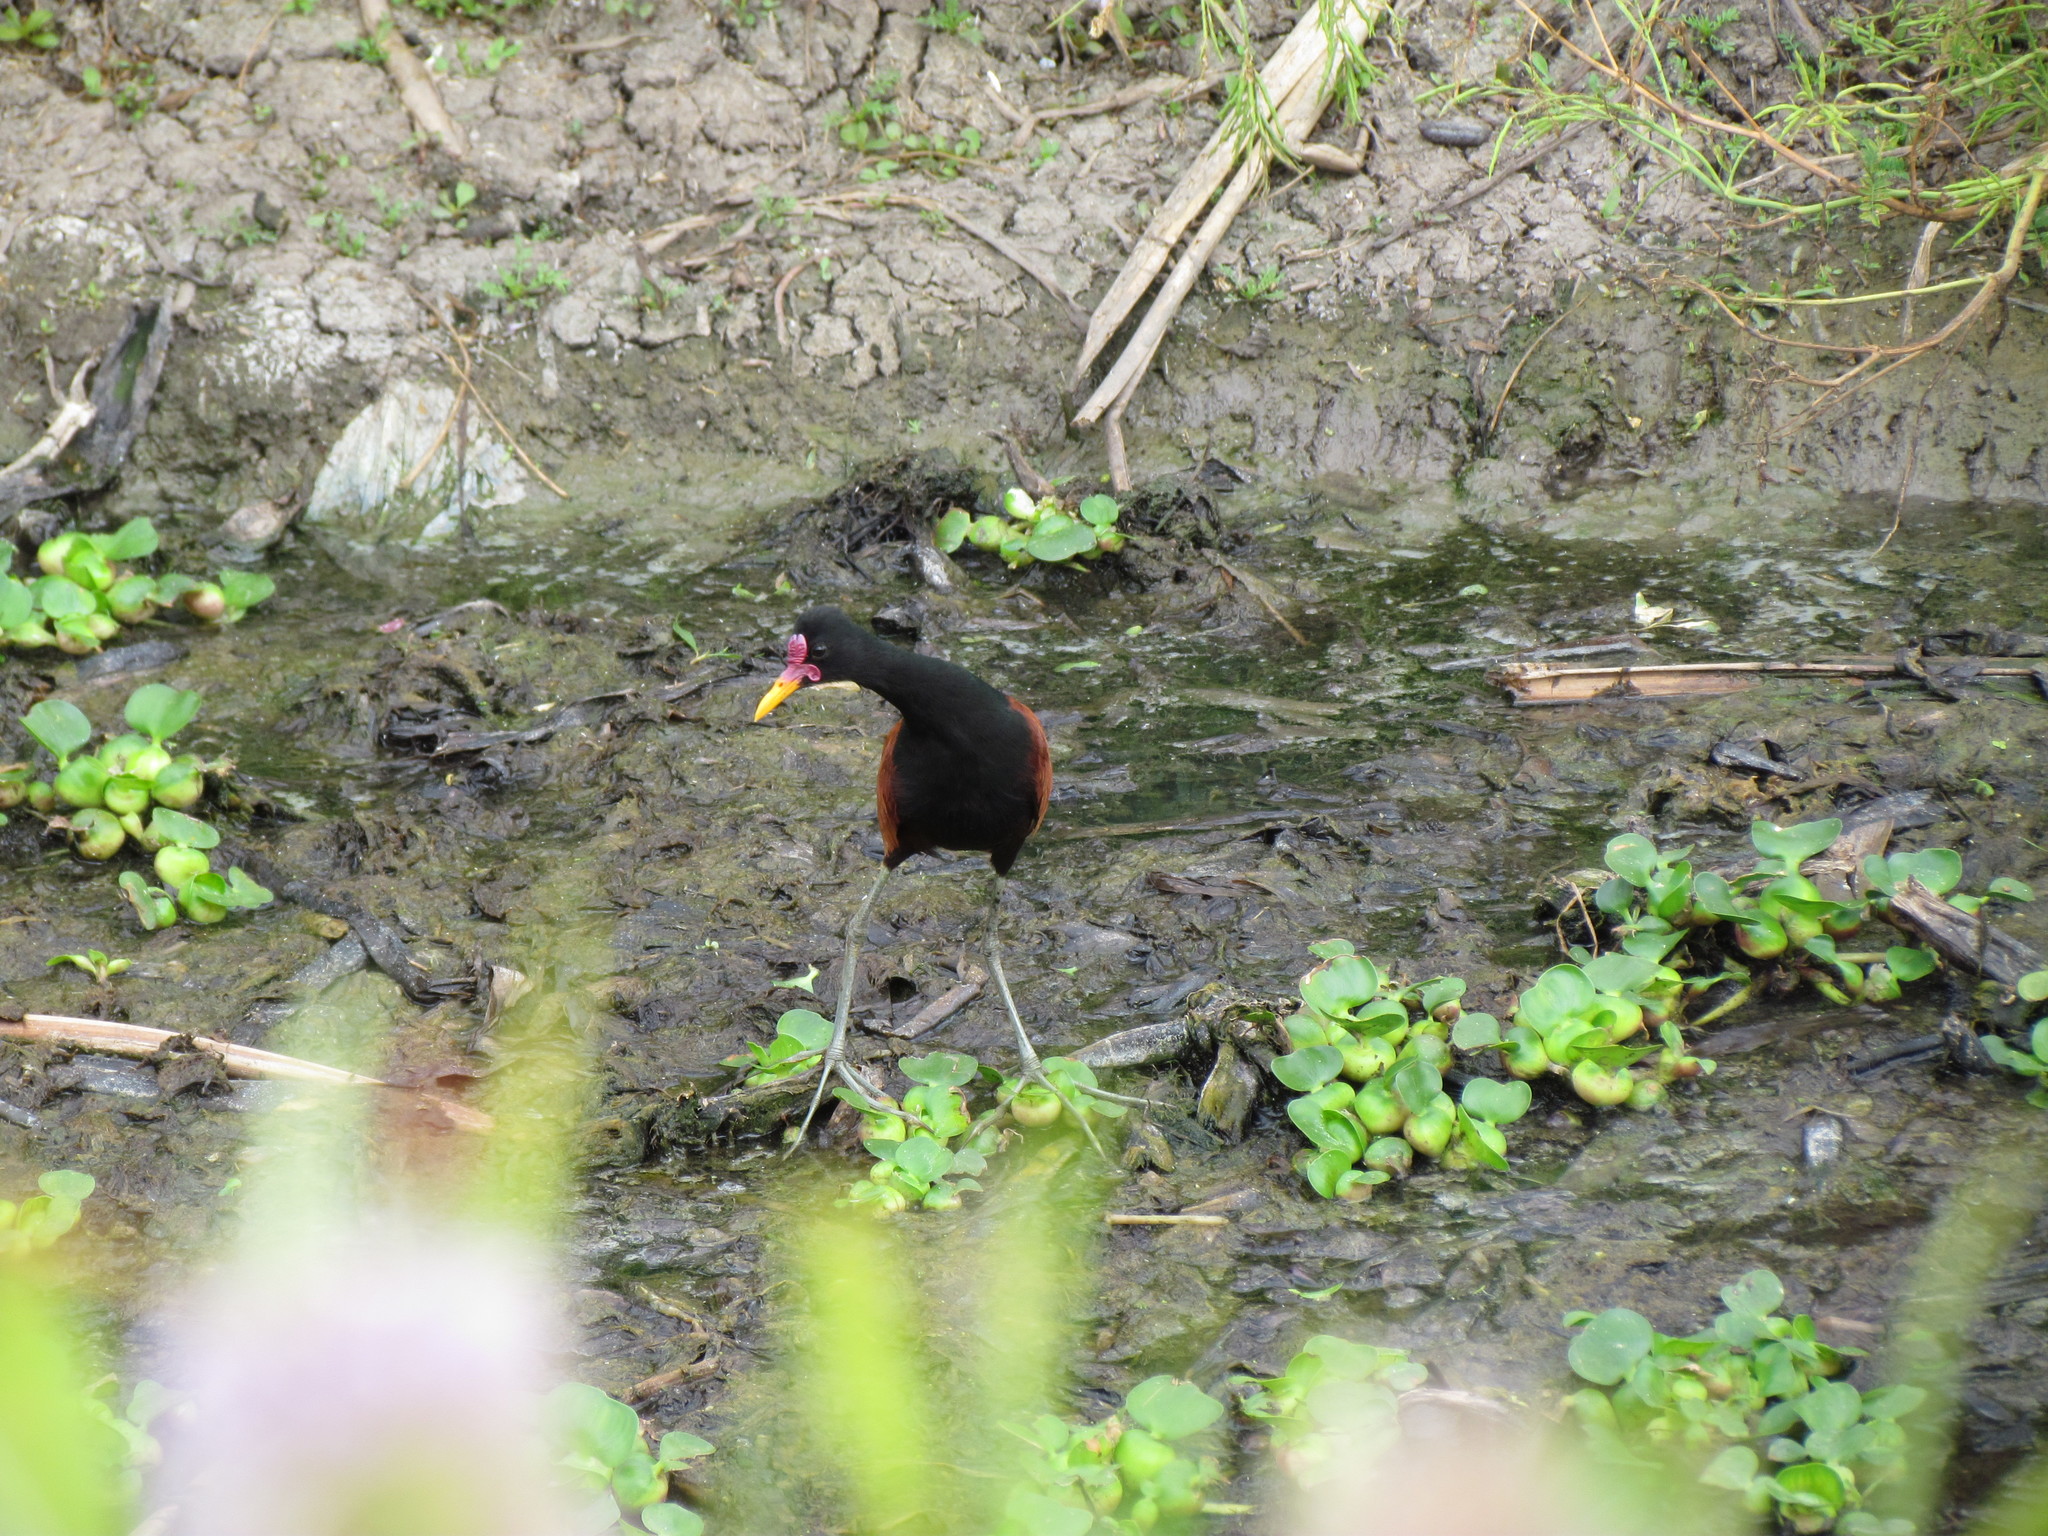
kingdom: Animalia
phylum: Chordata
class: Aves
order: Charadriiformes
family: Jacanidae
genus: Jacana
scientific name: Jacana jacana
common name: Wattled jacana
